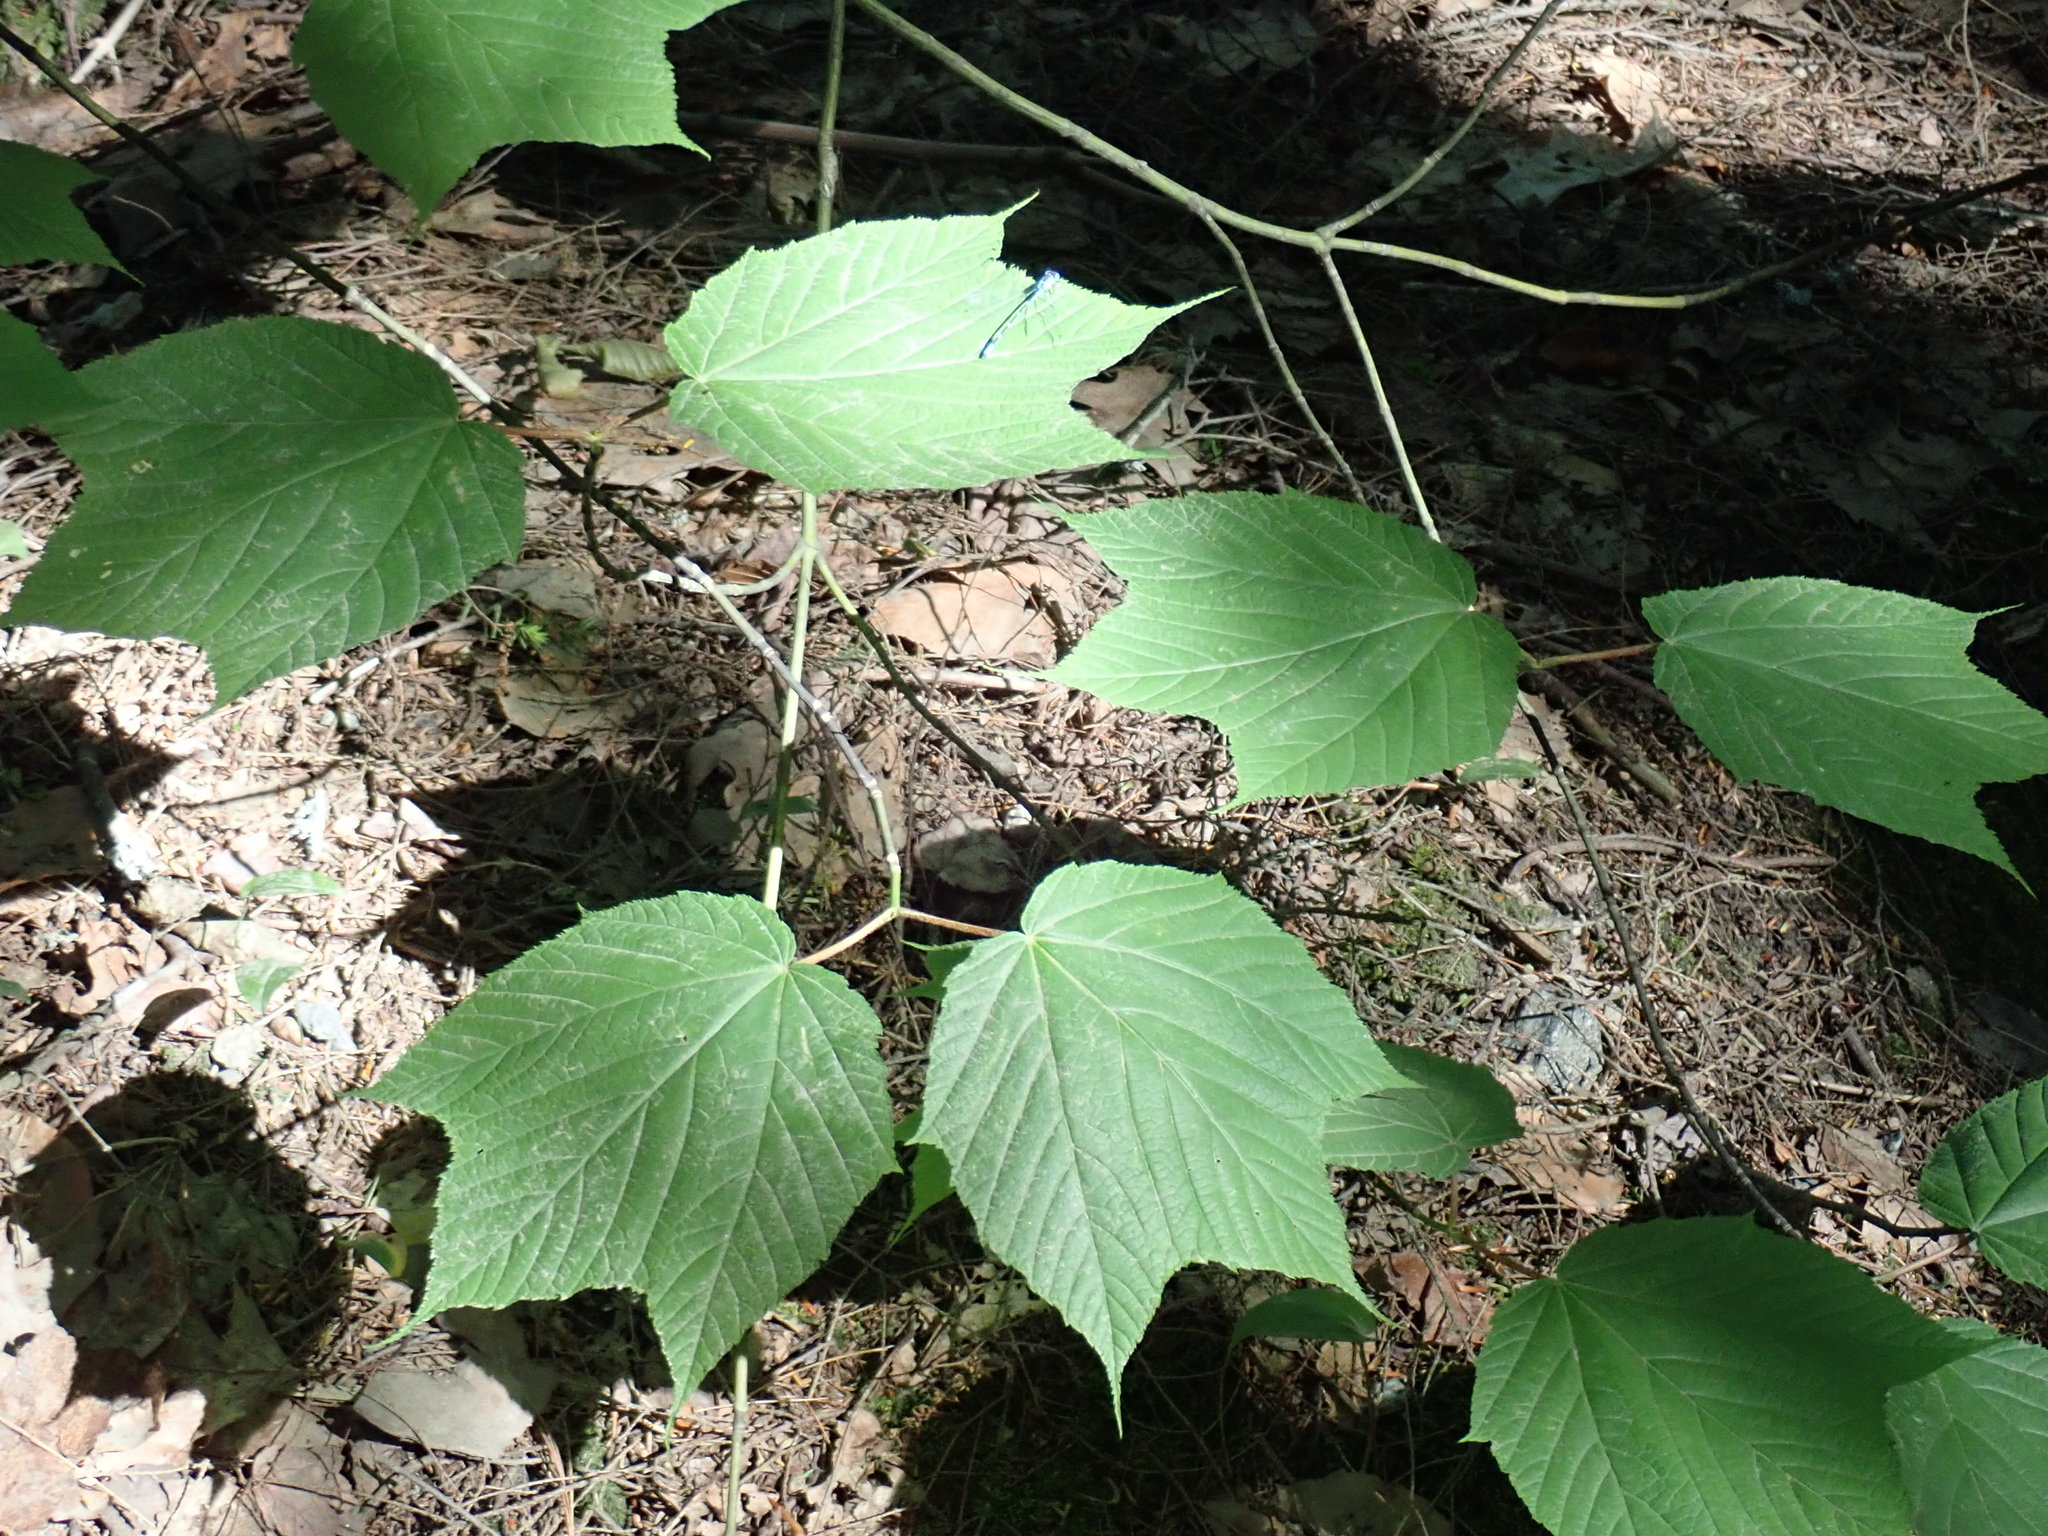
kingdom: Plantae
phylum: Tracheophyta
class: Magnoliopsida
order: Sapindales
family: Sapindaceae
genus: Acer
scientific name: Acer pensylvanicum
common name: Moosewood
